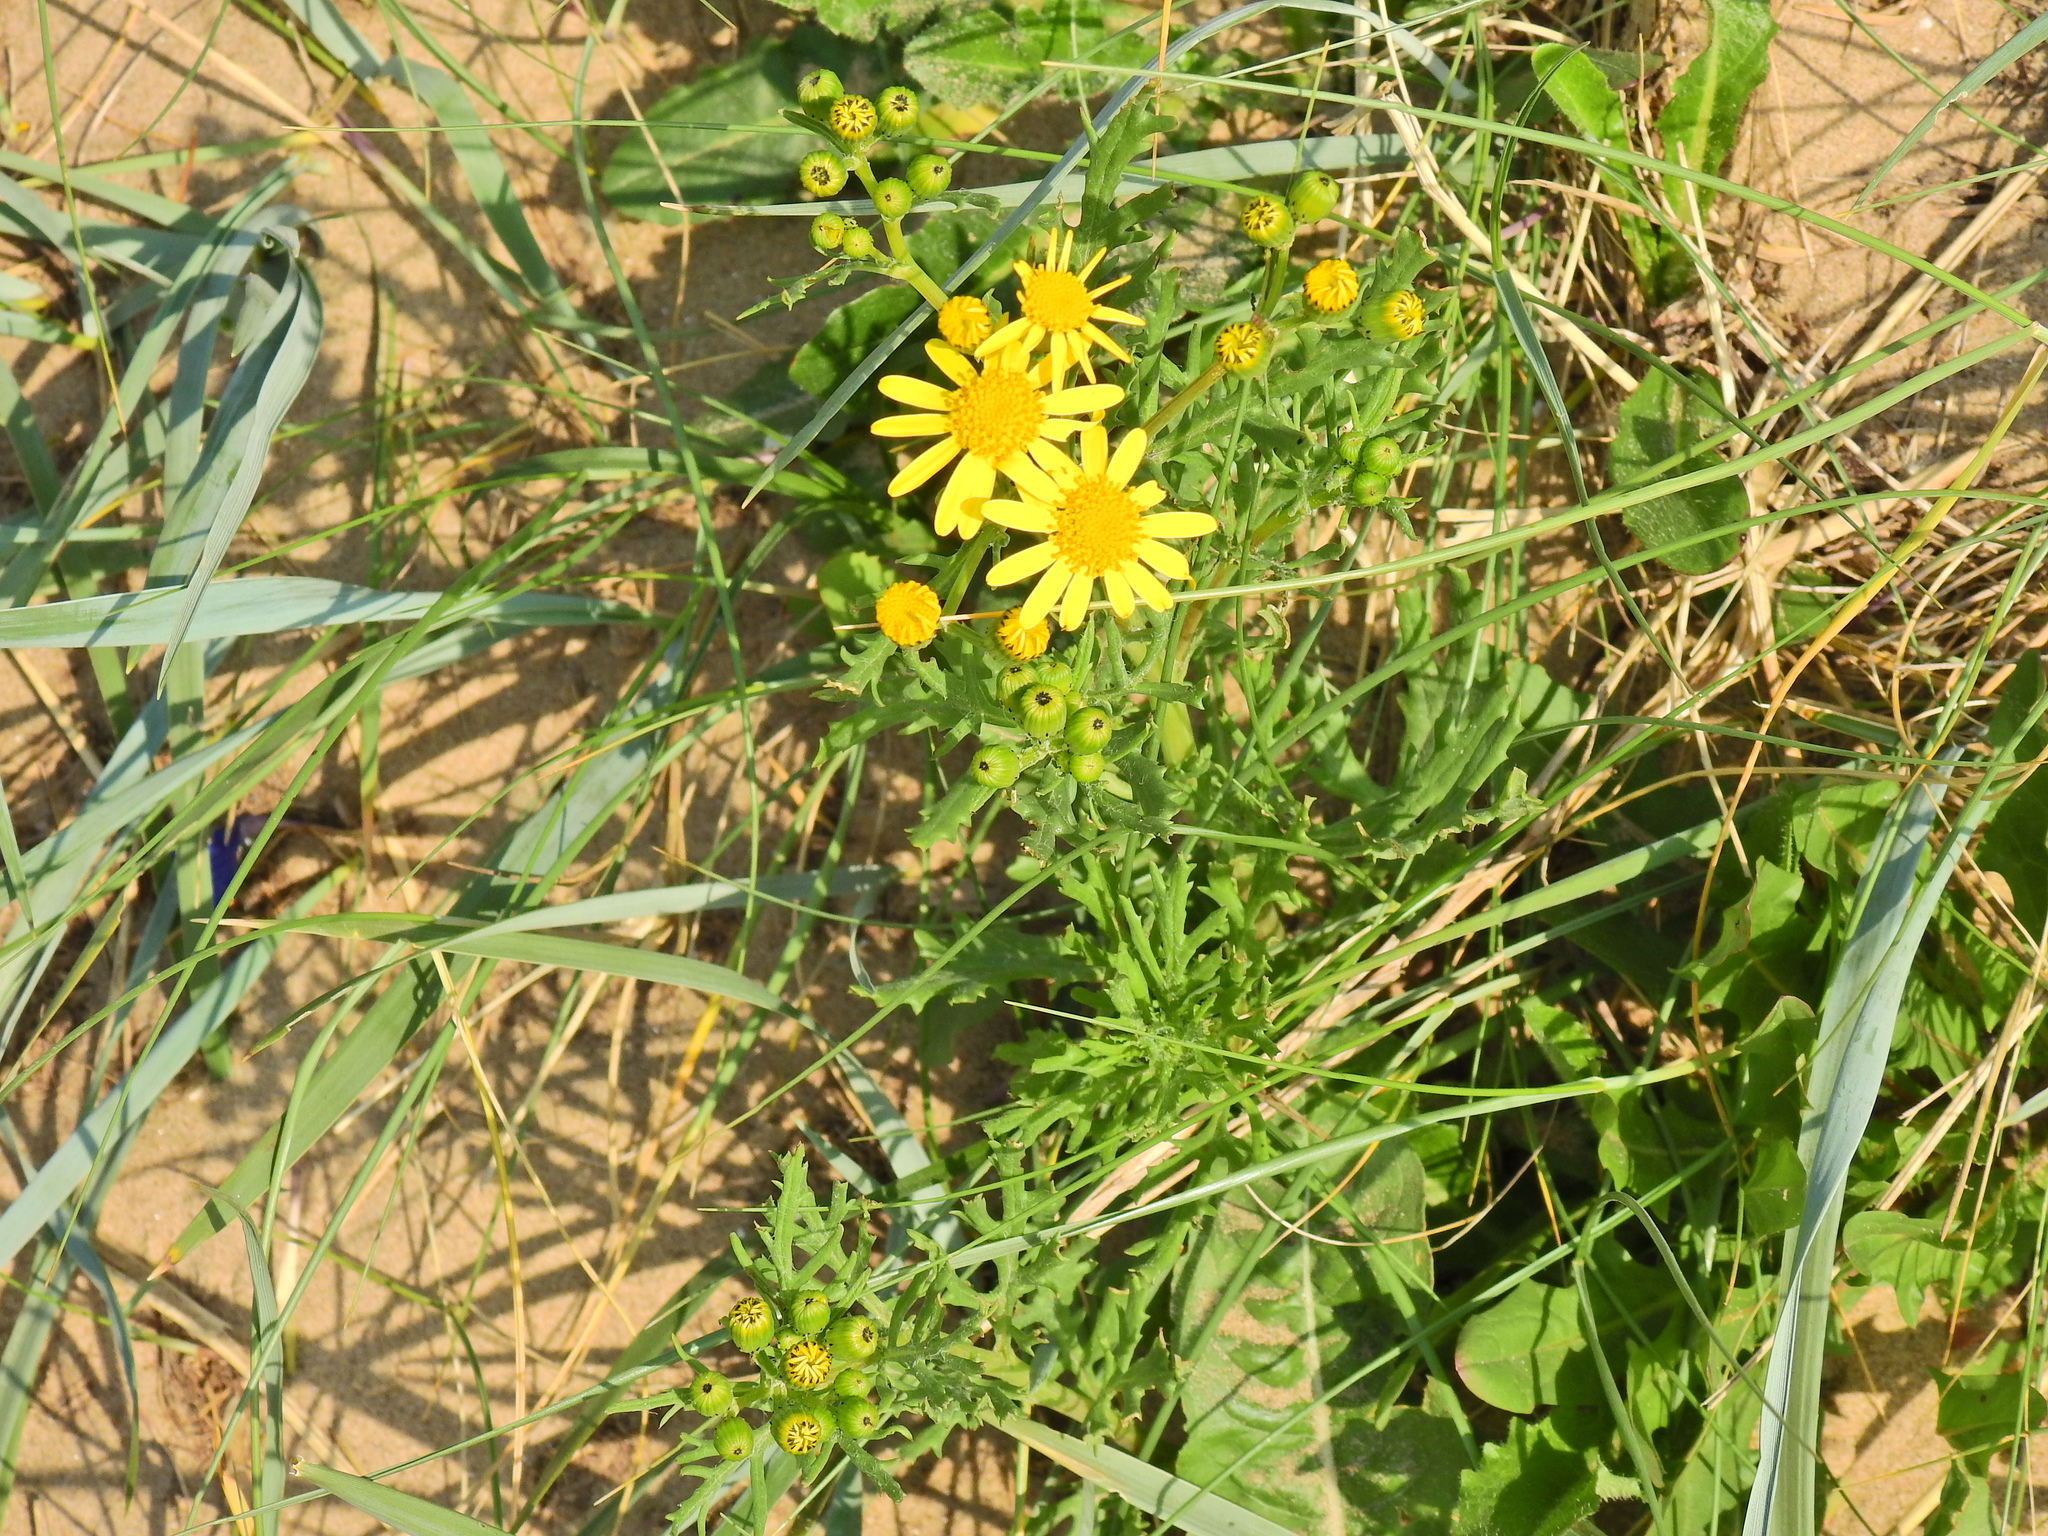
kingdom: Plantae
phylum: Tracheophyta
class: Magnoliopsida
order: Asterales
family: Asteraceae
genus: Senecio
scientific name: Senecio squalidus
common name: Oxford ragwort
